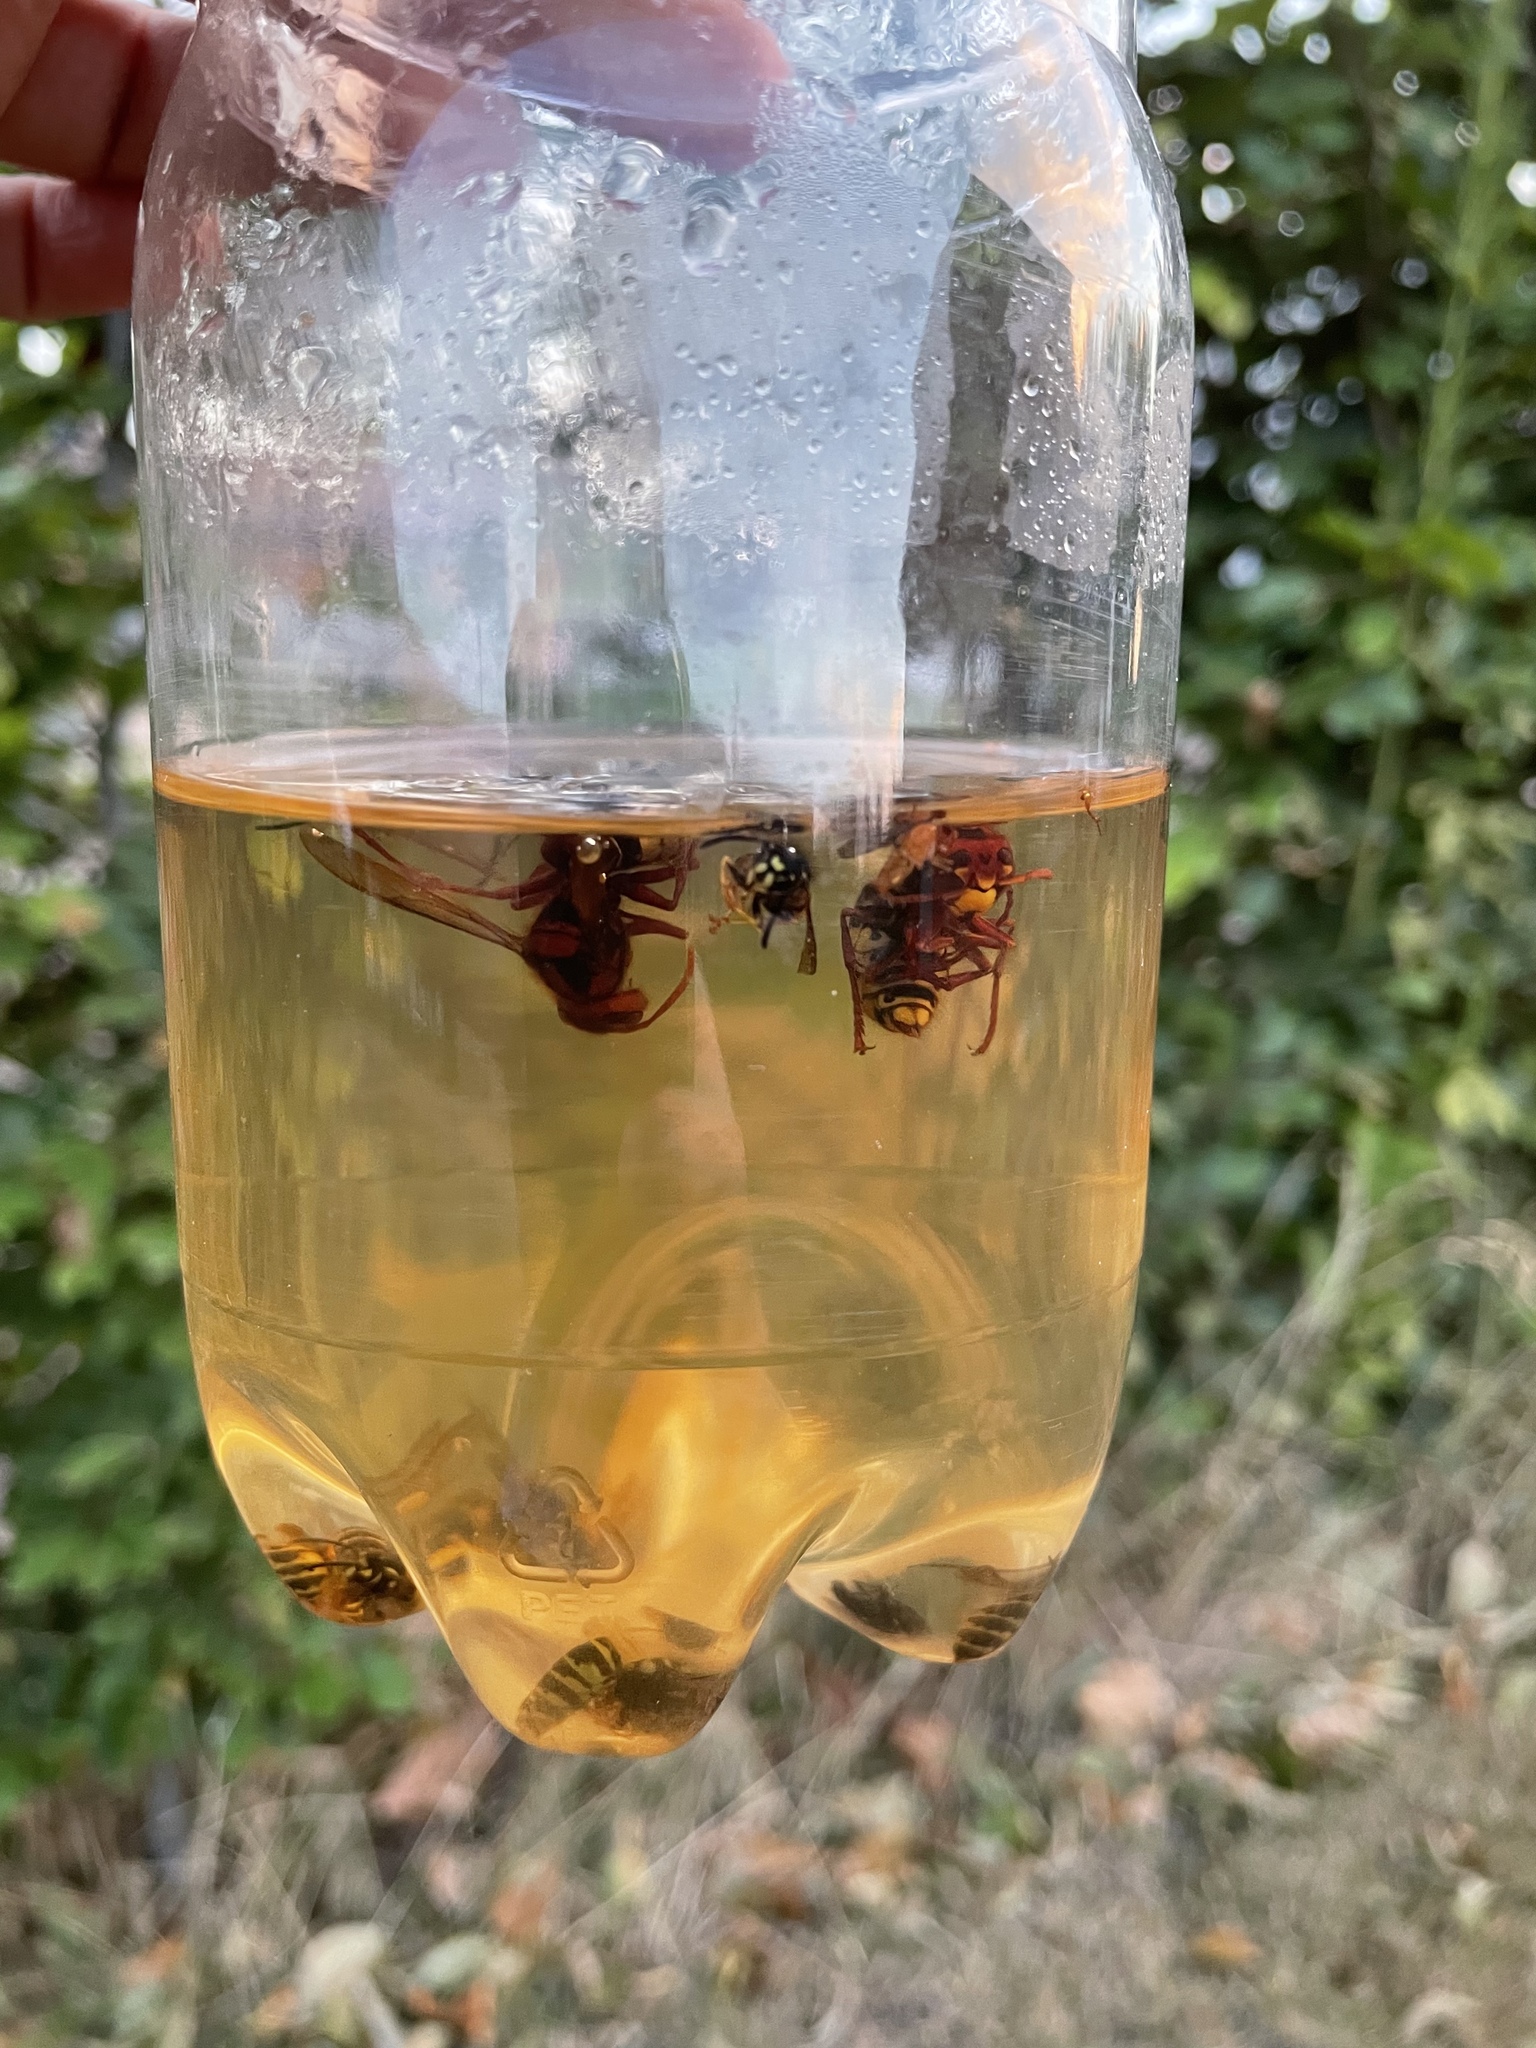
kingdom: Animalia
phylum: Arthropoda
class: Insecta
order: Hymenoptera
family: Vespidae
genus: Vespa
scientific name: Vespa crabro
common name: Hornet
